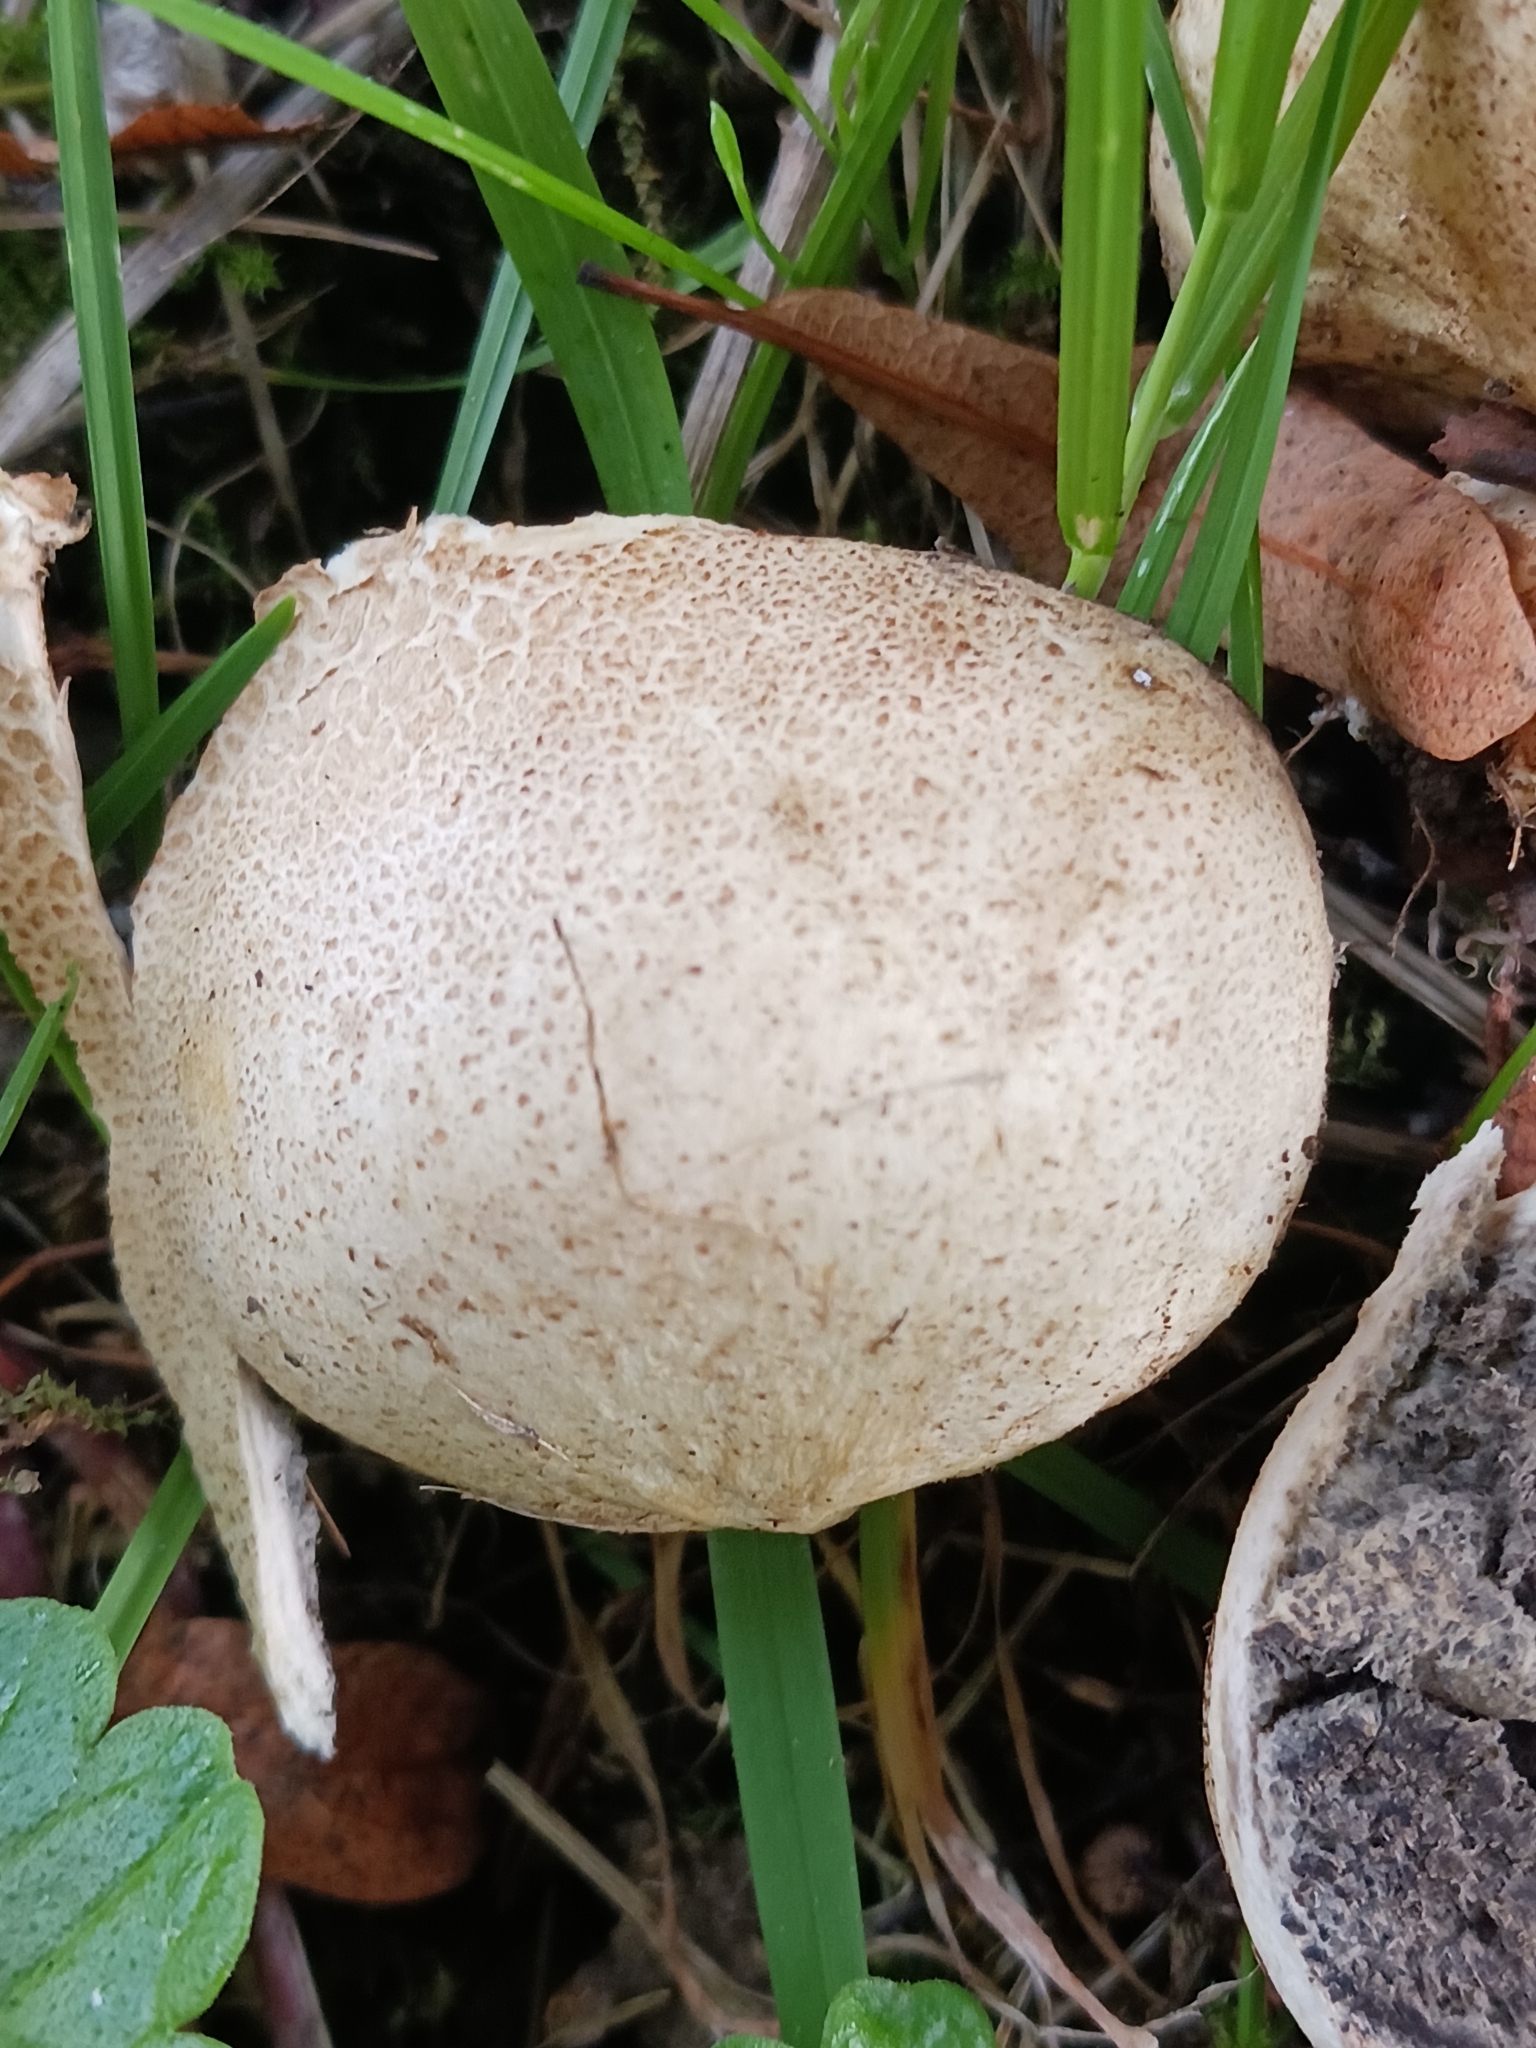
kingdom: Fungi
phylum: Basidiomycota
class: Agaricomycetes
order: Boletales
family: Sclerodermataceae
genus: Scleroderma
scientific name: Scleroderma citrinum
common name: Common earthball
